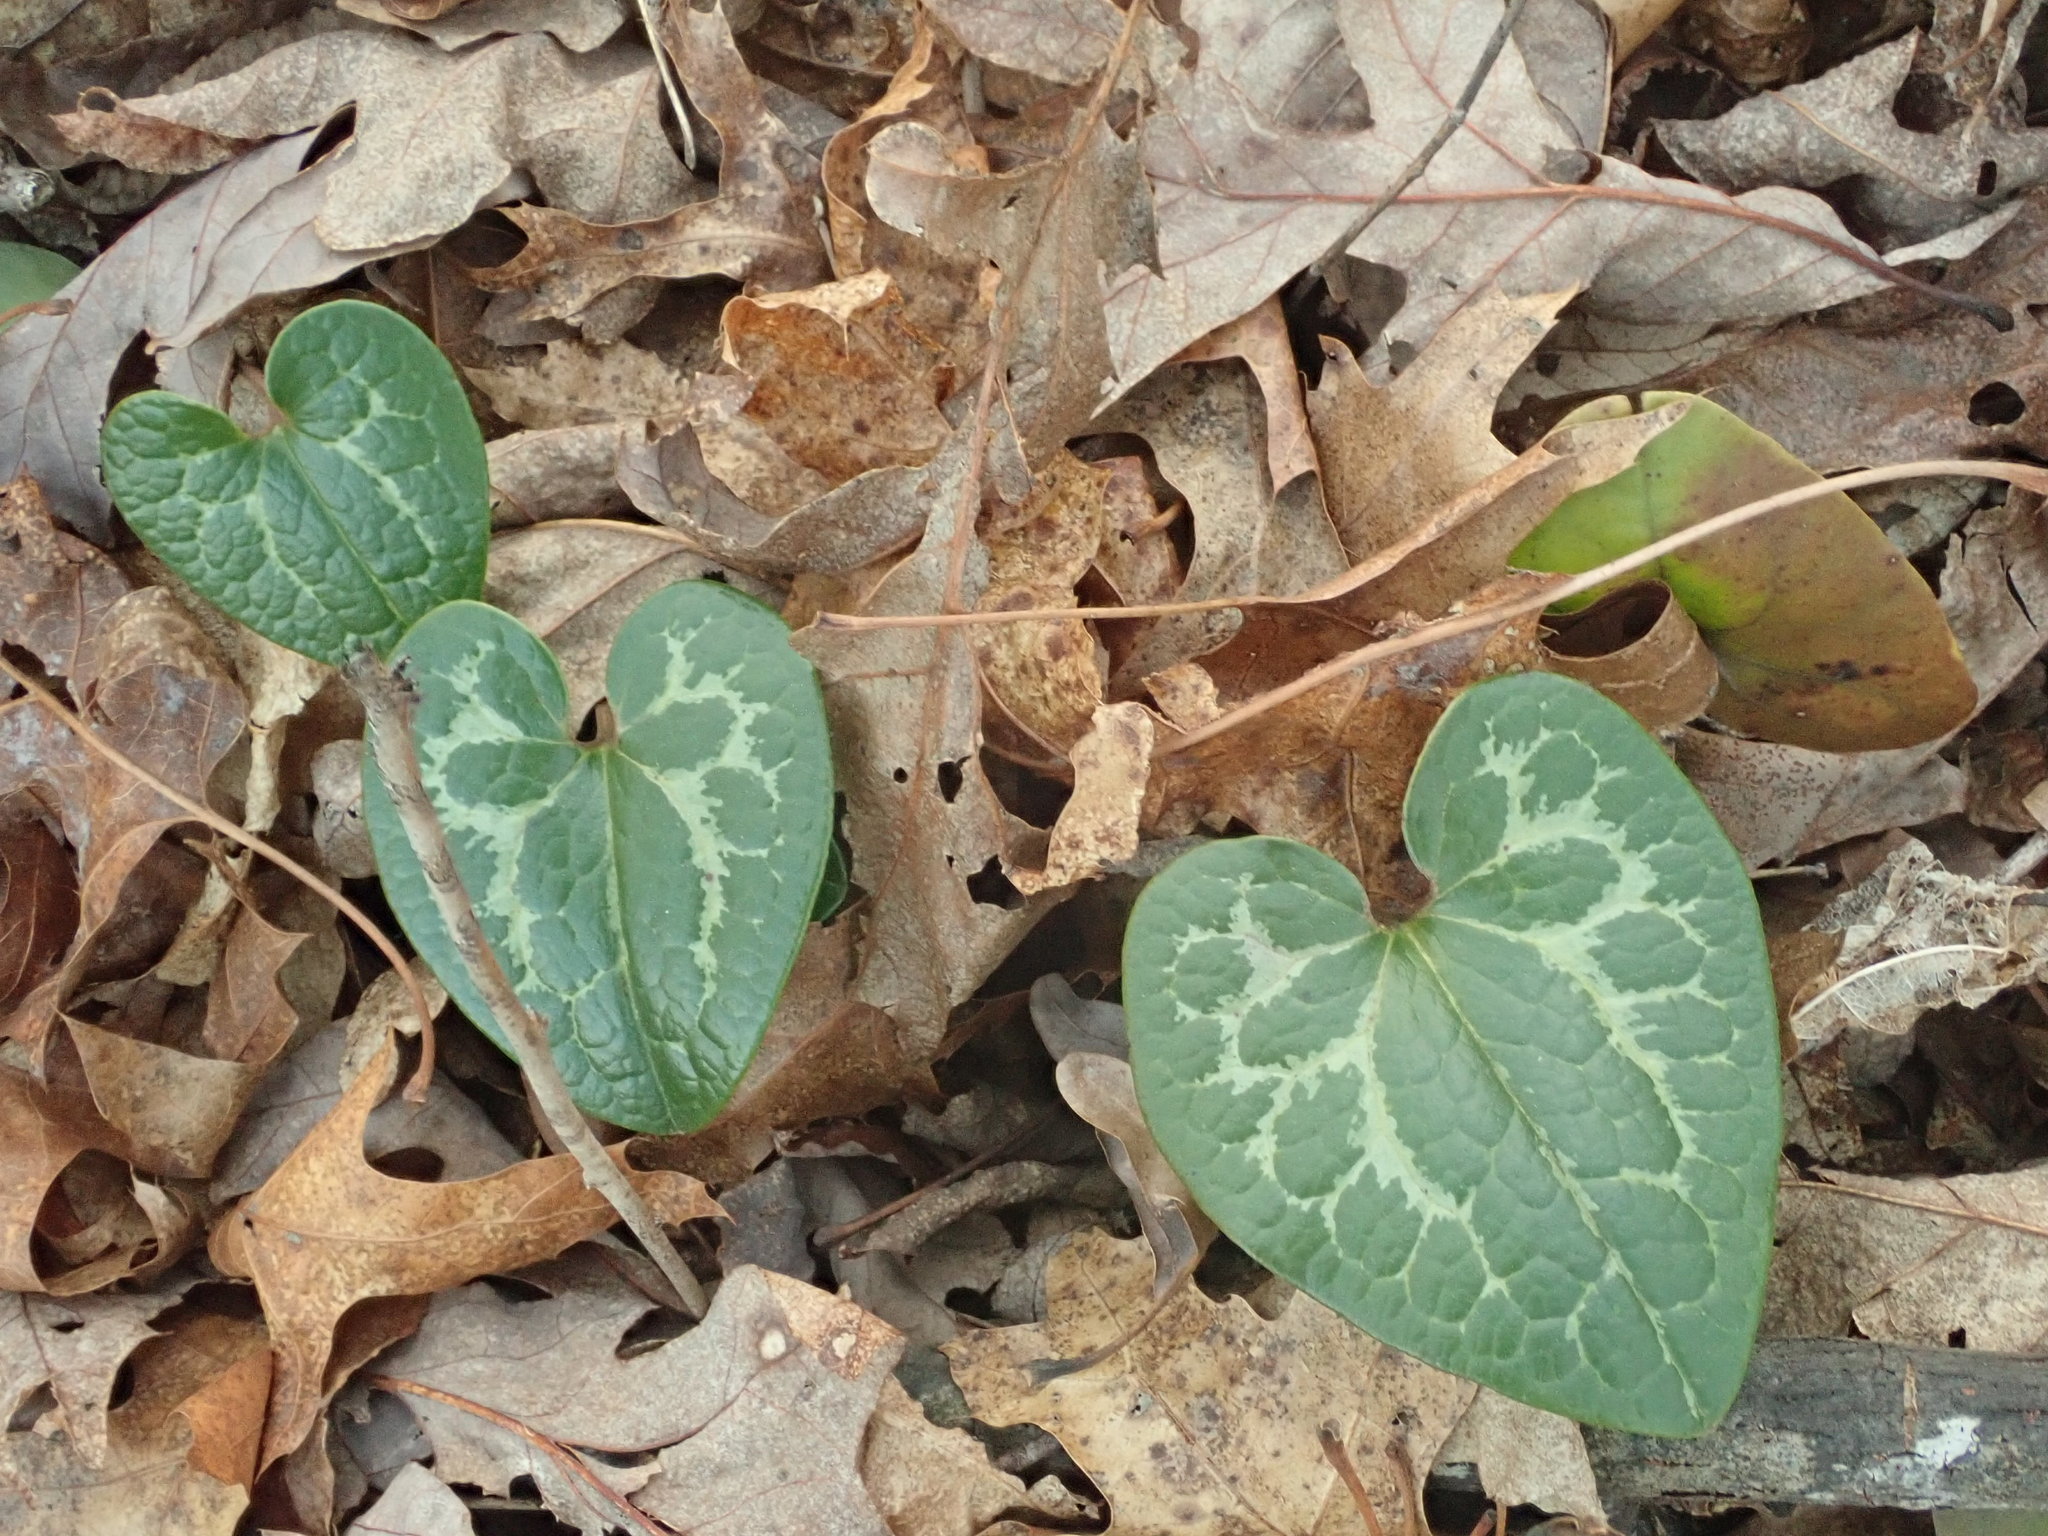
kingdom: Plantae
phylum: Tracheophyta
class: Magnoliopsida
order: Piperales
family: Aristolochiaceae
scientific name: Aristolochiaceae
